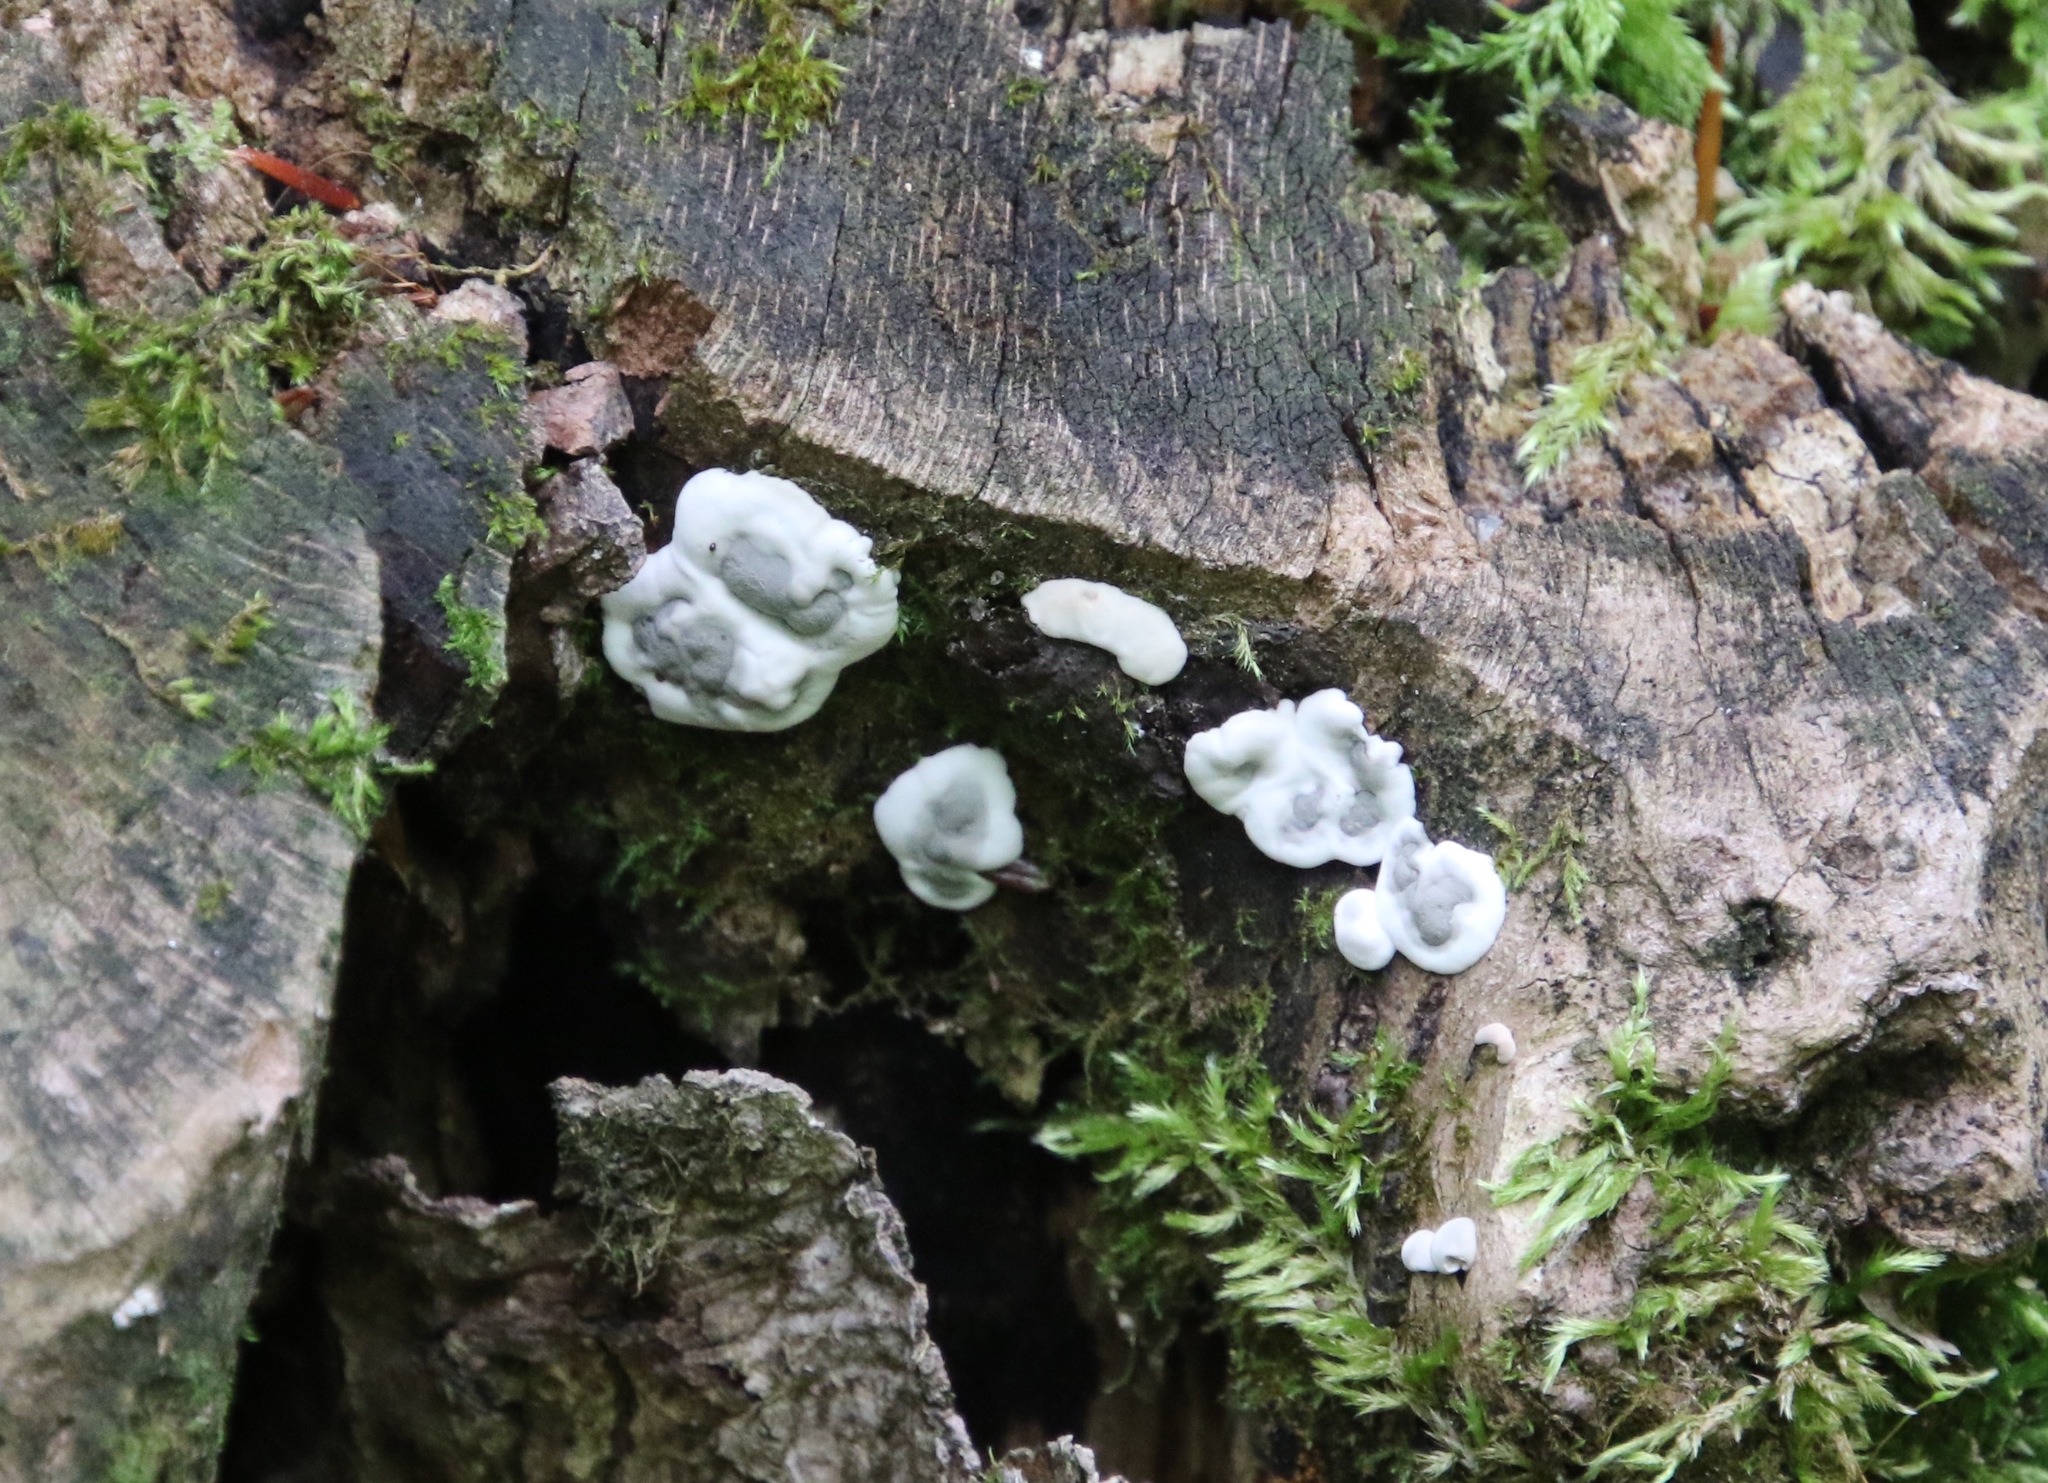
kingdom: Fungi
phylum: Ascomycota
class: Sordariomycetes
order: Xylariales
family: Xylariaceae
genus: Kretzschmaria
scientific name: Kretzschmaria deusta
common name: Brittle cinder
